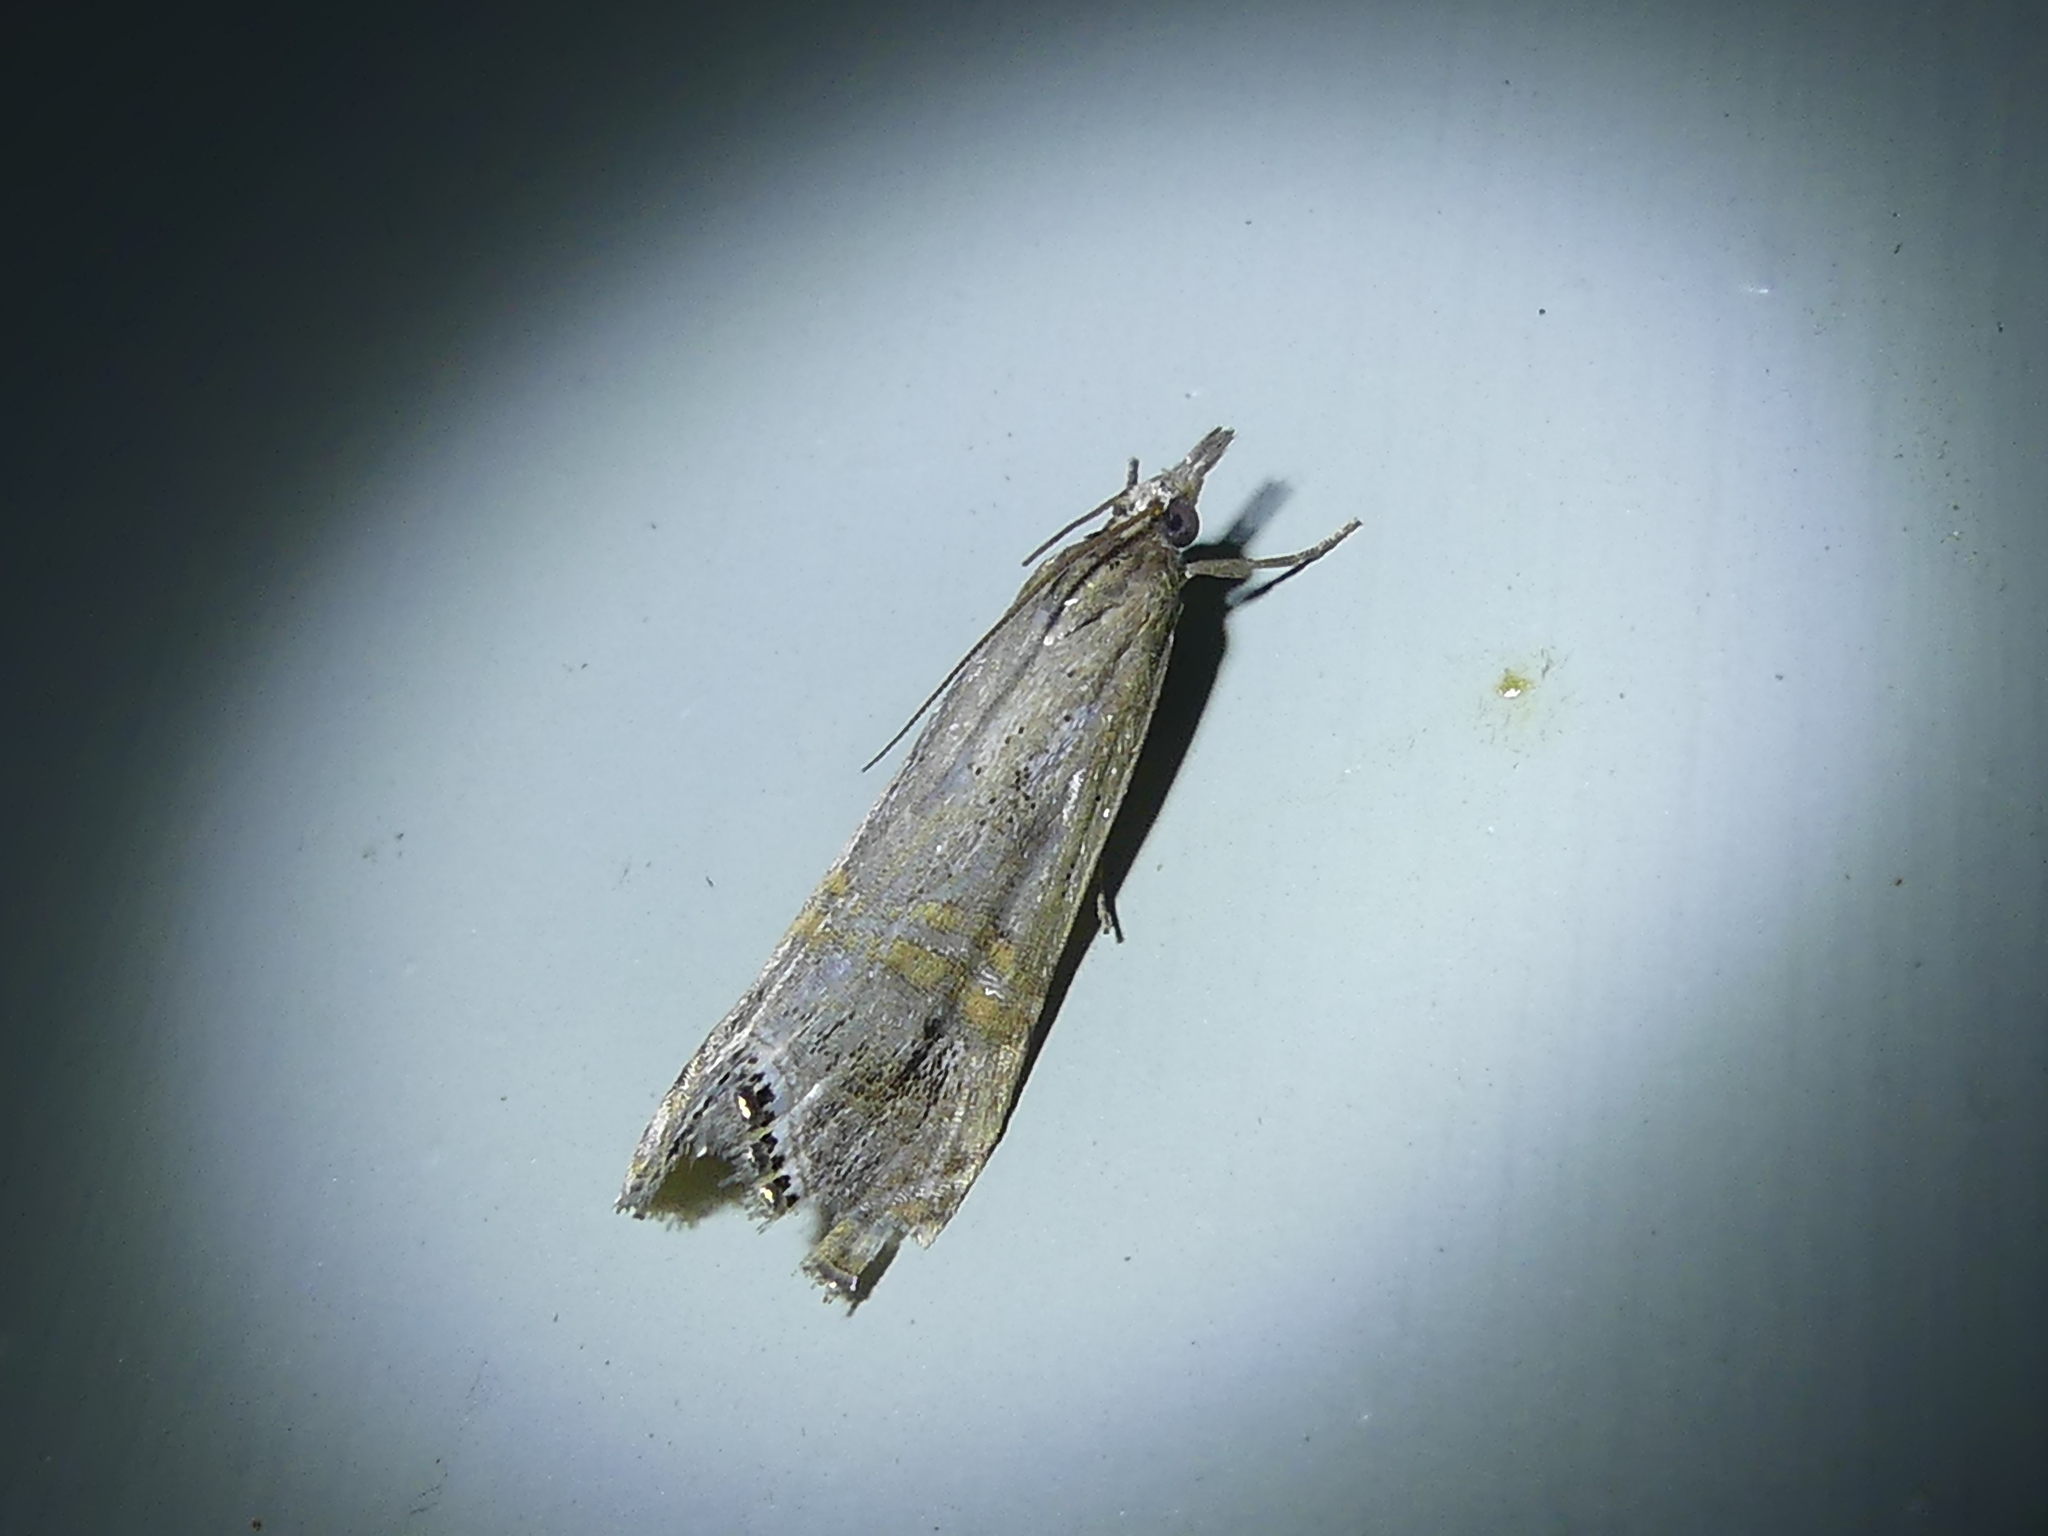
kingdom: Animalia
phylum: Arthropoda
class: Insecta
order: Lepidoptera
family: Crambidae
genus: Euchromius
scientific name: Euchromius ocellea
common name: Necklace veneer moth
